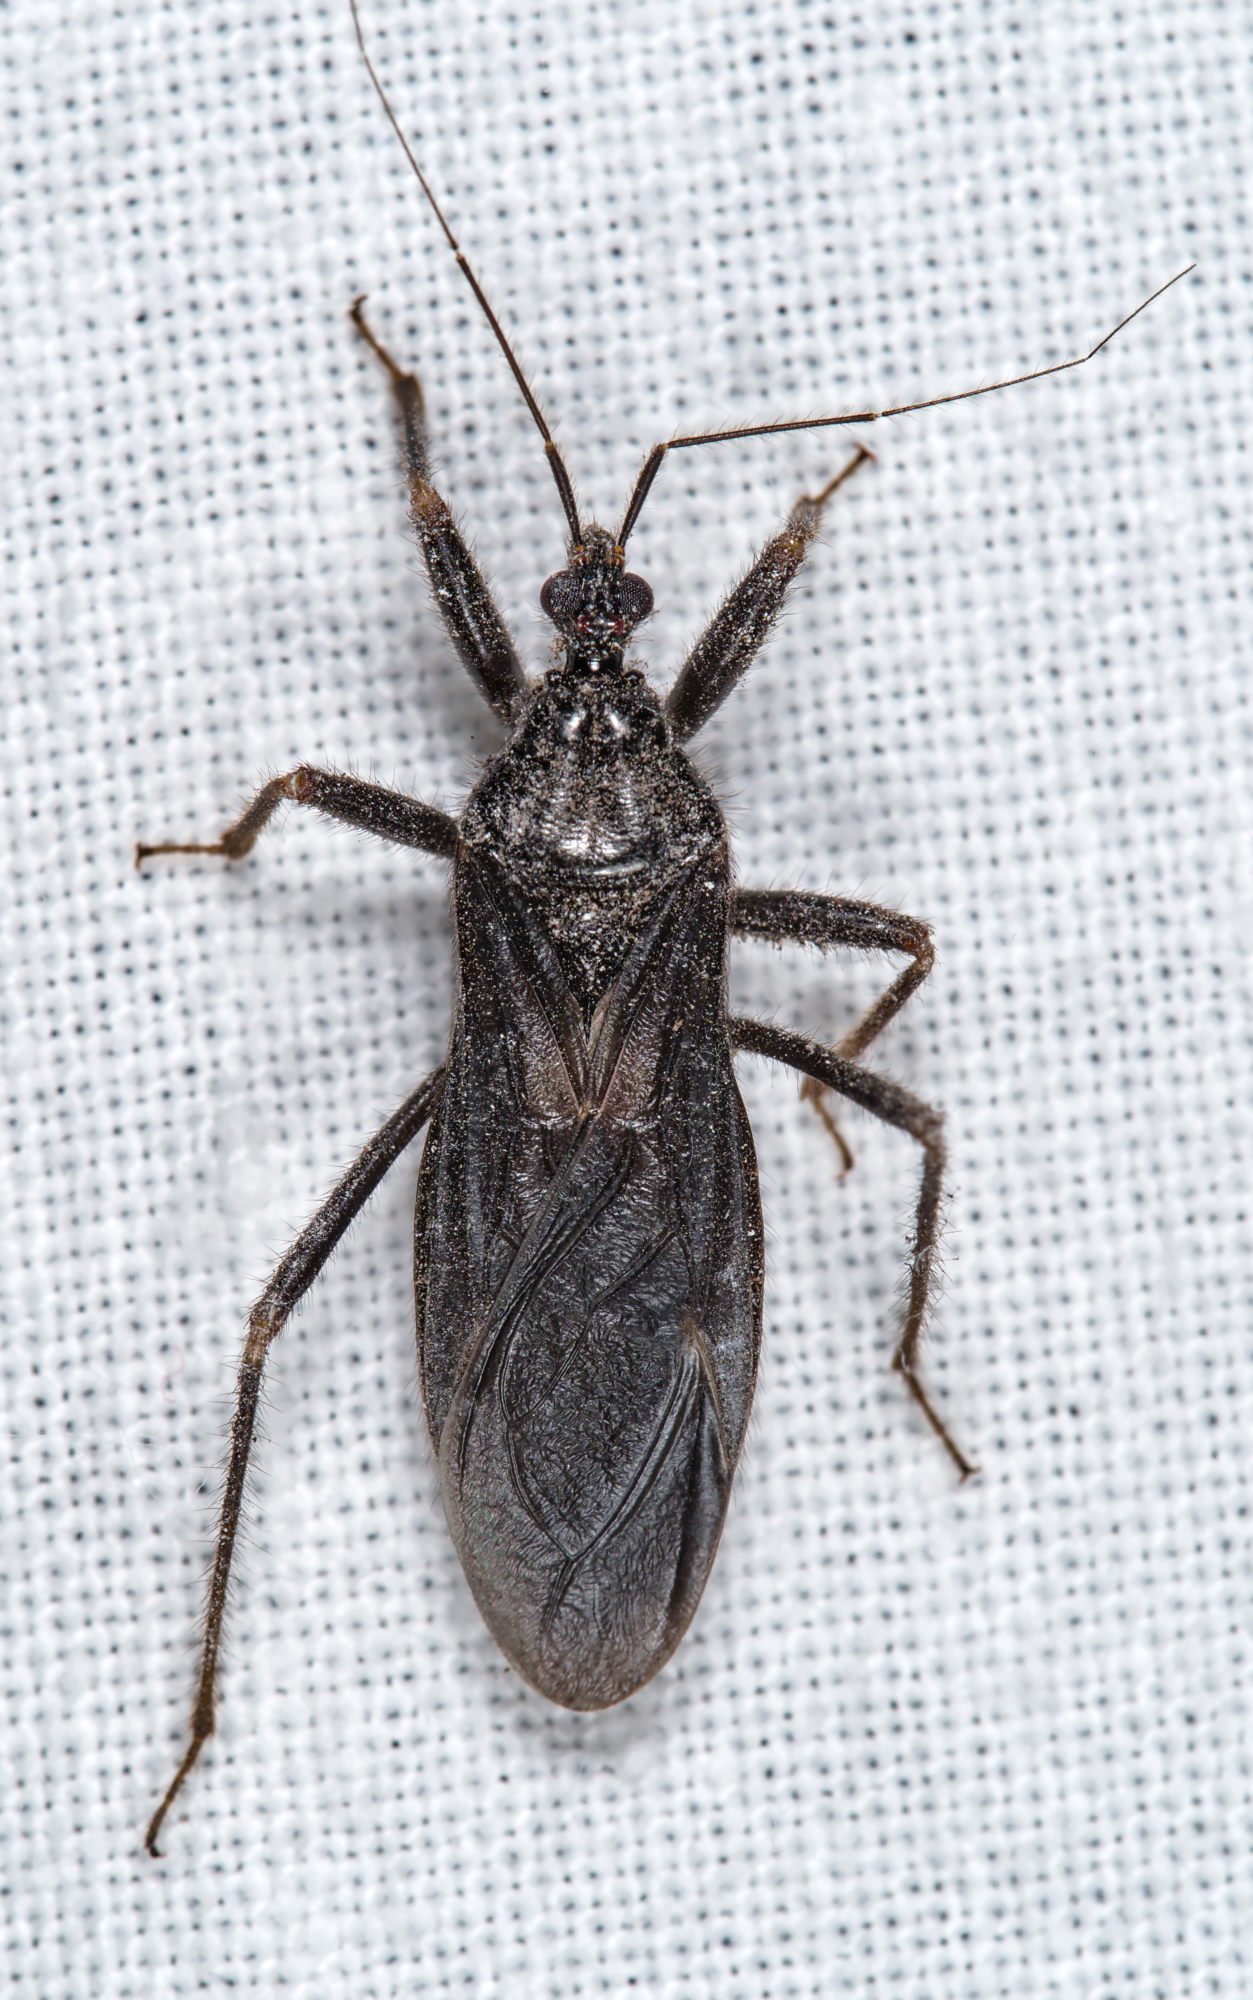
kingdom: Animalia
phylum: Arthropoda
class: Insecta
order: Hemiptera
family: Reduviidae
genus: Reduvius
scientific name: Reduvius personatus
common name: Masked hunter
